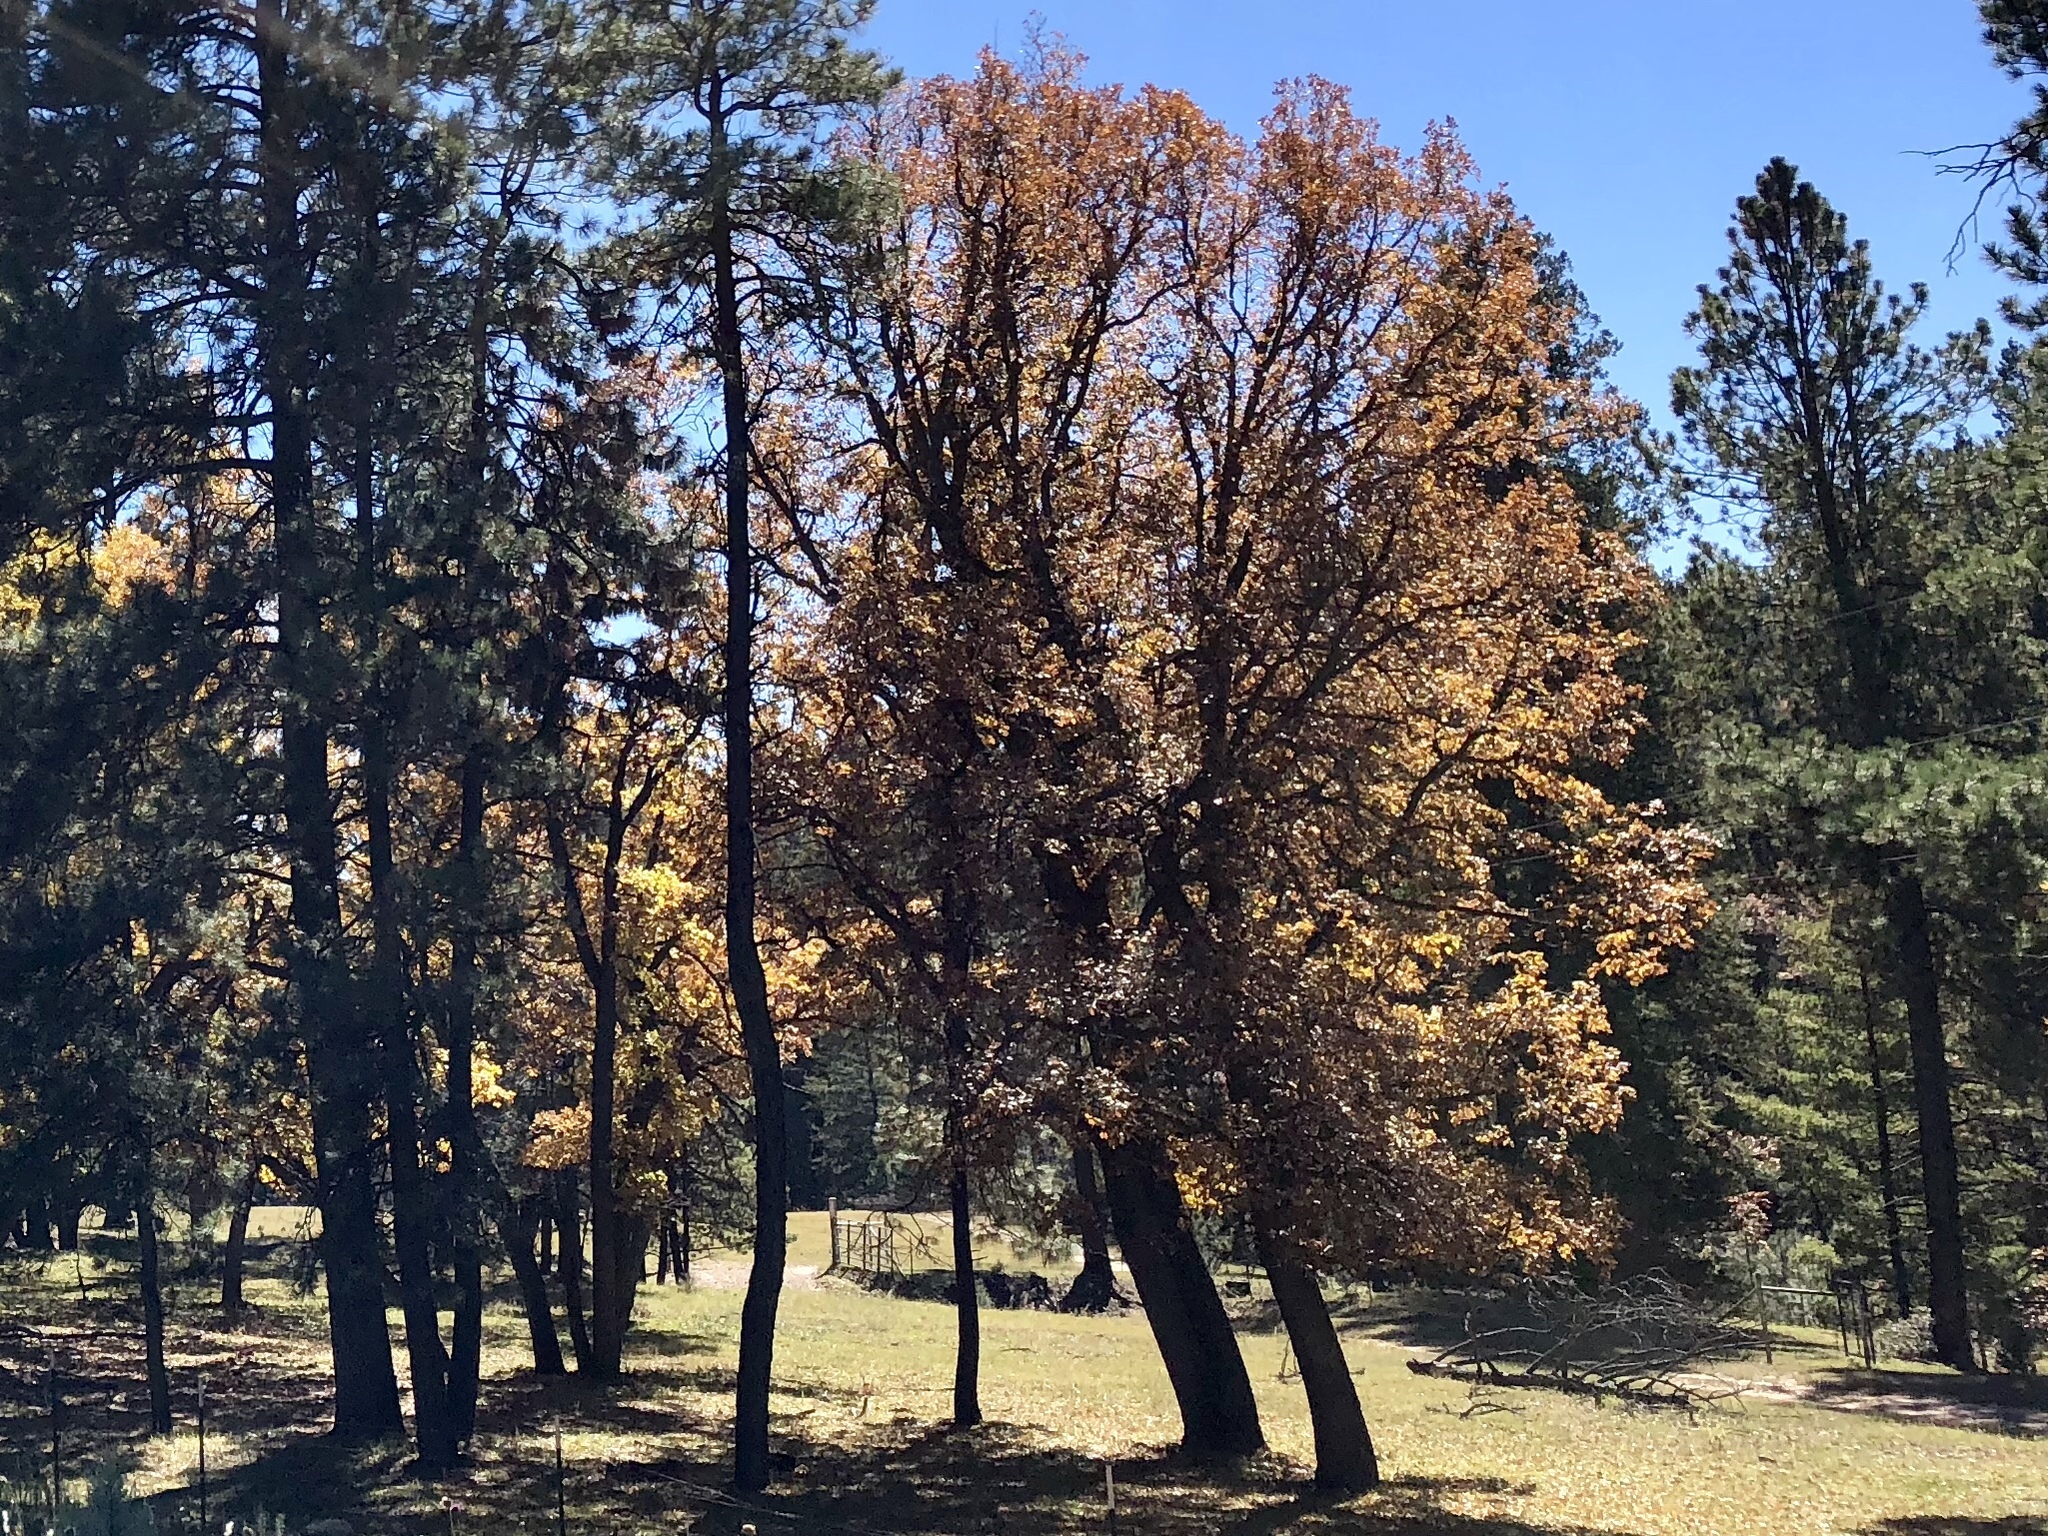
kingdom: Plantae
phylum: Tracheophyta
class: Magnoliopsida
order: Fagales
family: Fagaceae
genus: Quercus
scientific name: Quercus gambelii
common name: Gambel oak
